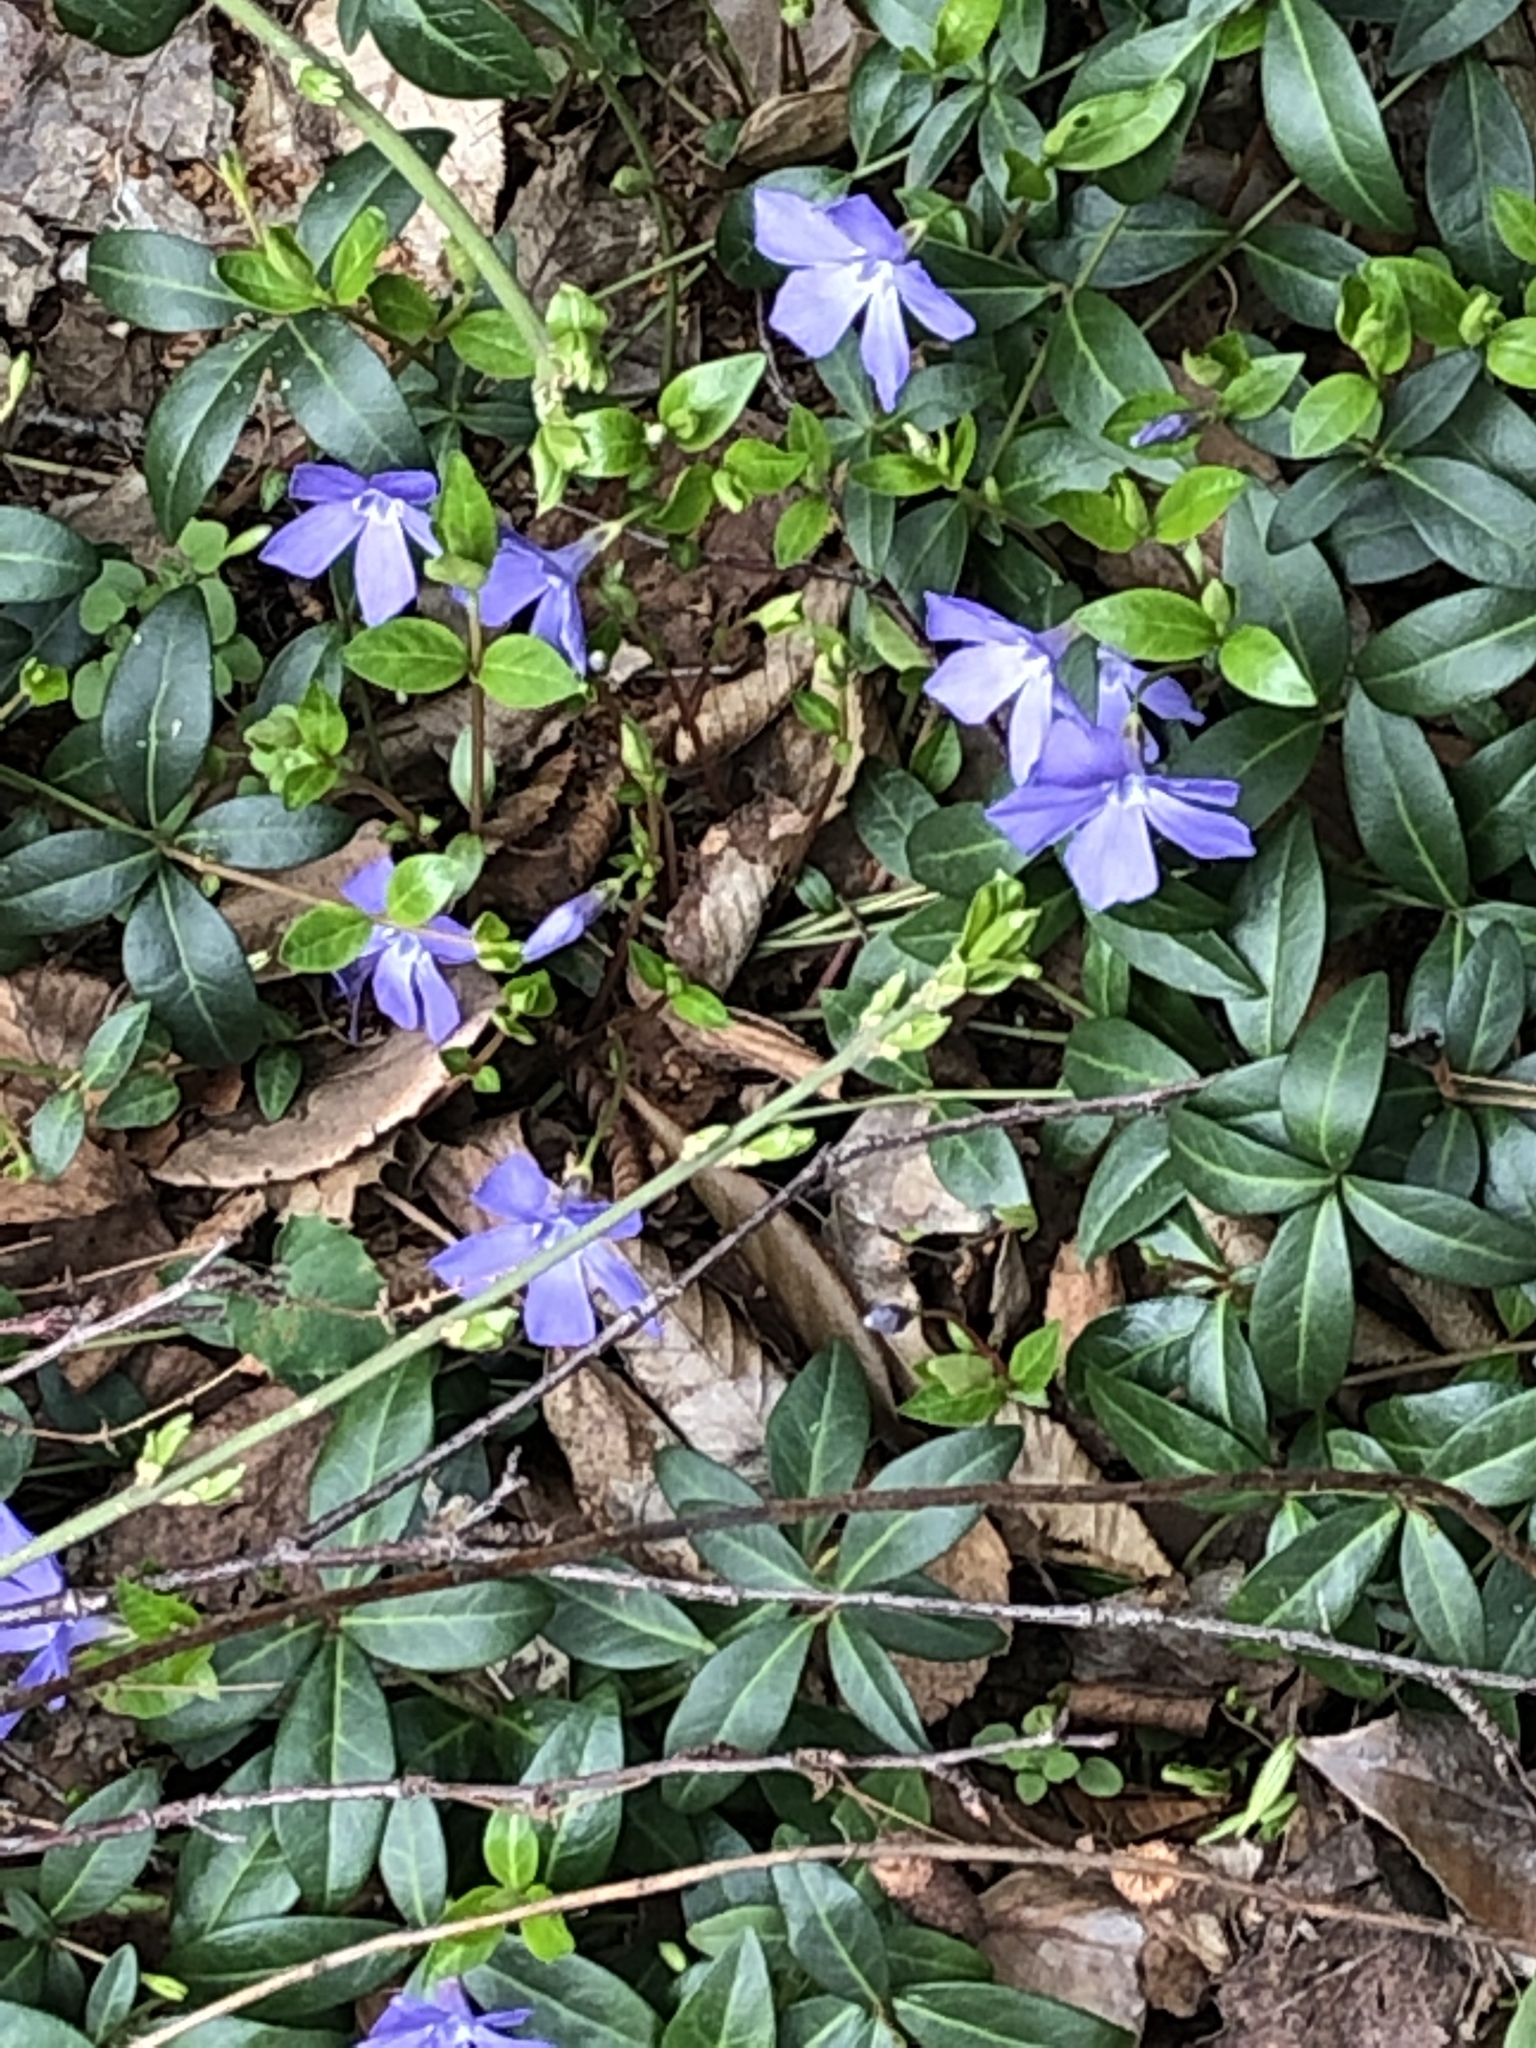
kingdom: Plantae
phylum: Tracheophyta
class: Magnoliopsida
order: Gentianales
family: Apocynaceae
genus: Vinca
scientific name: Vinca minor
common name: Lesser periwinkle
